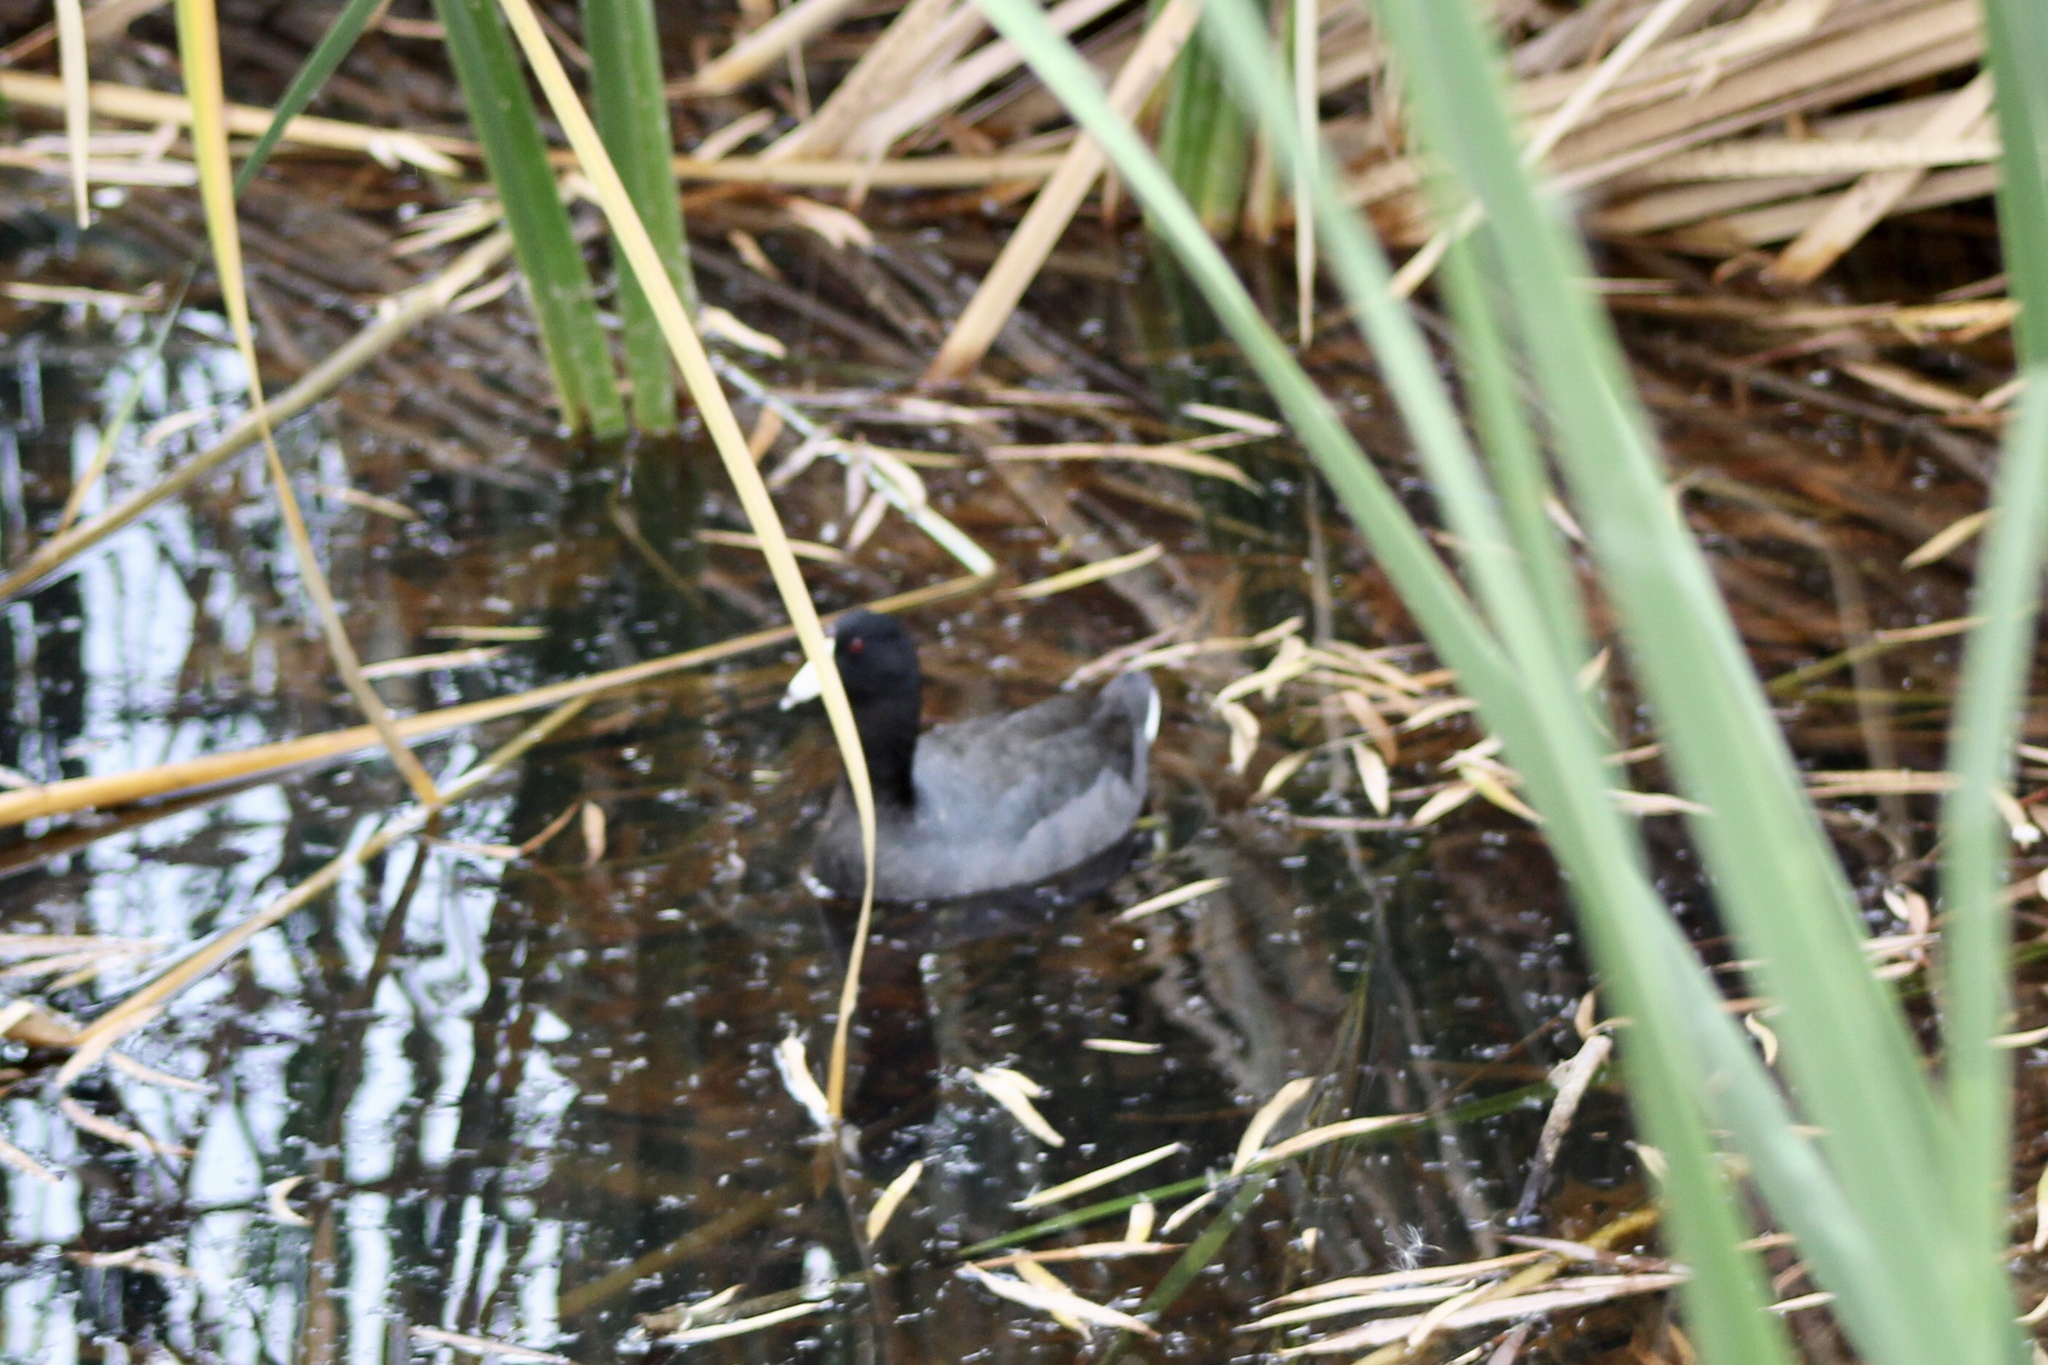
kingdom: Animalia
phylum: Chordata
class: Aves
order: Gruiformes
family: Rallidae
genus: Fulica
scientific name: Fulica americana
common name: American coot
